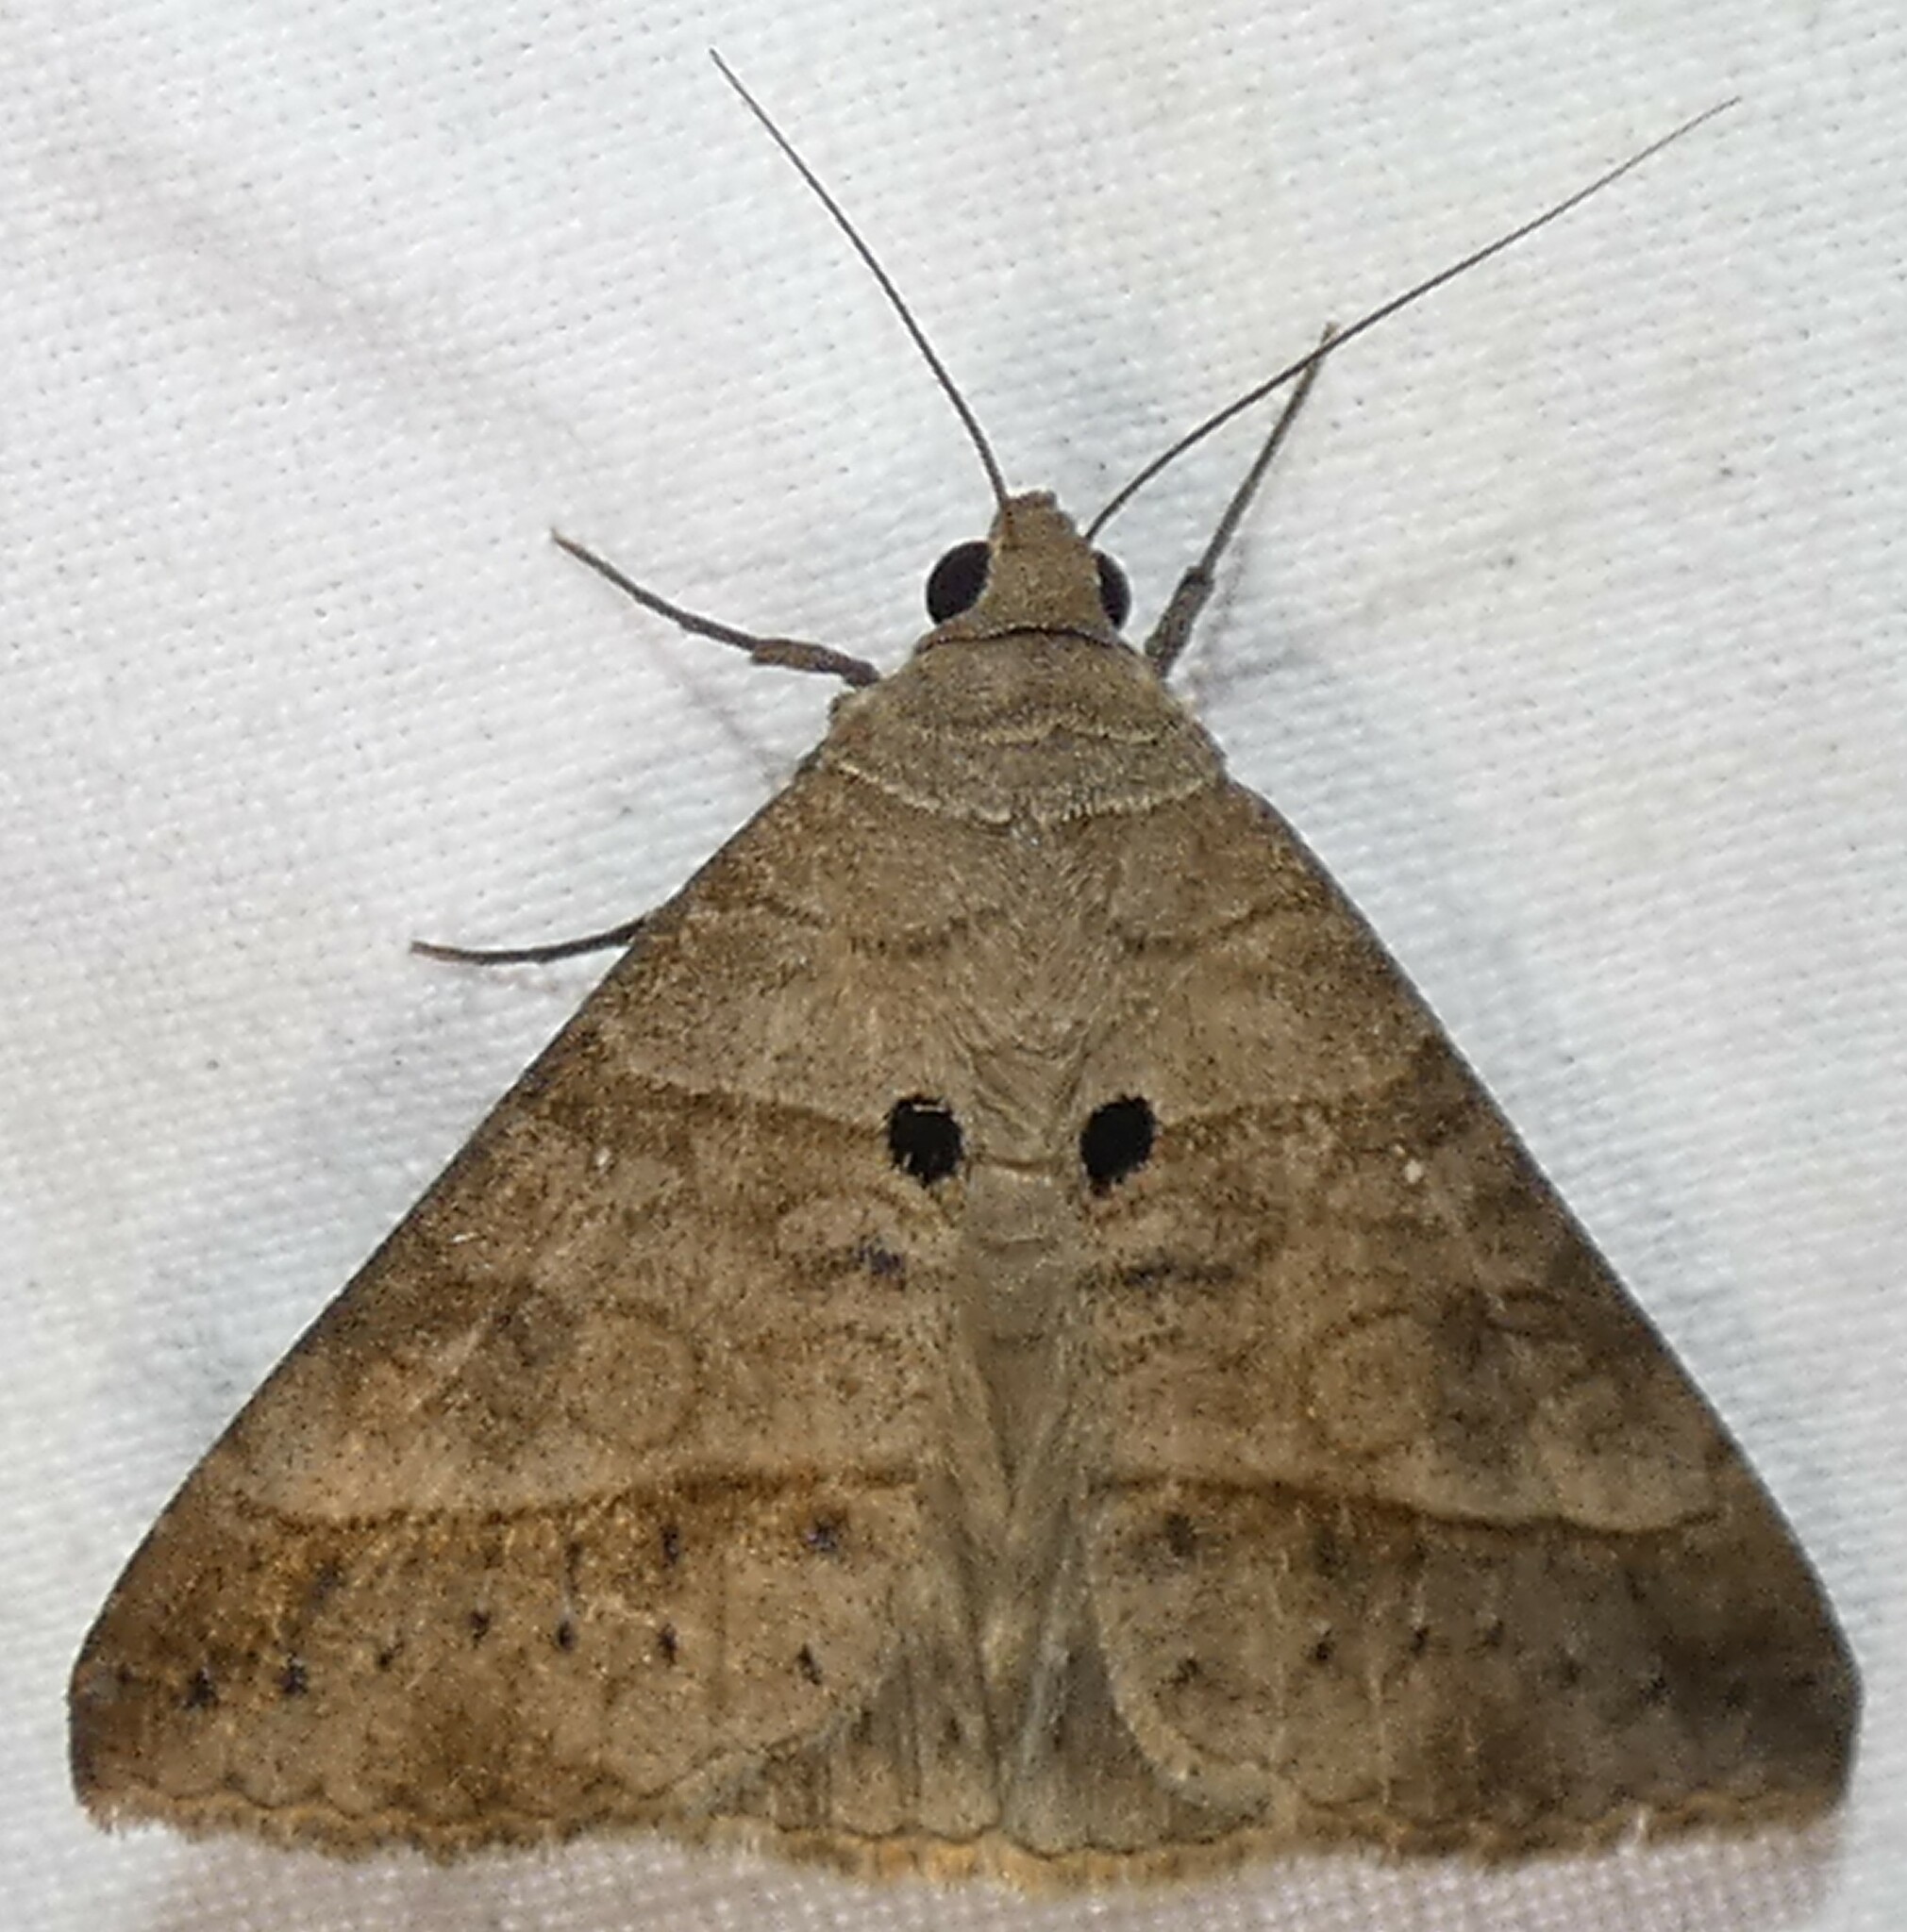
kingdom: Animalia
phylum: Arthropoda
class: Insecta
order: Lepidoptera
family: Erebidae
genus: Mocis
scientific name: Mocis latipes
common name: Striped grass looper
